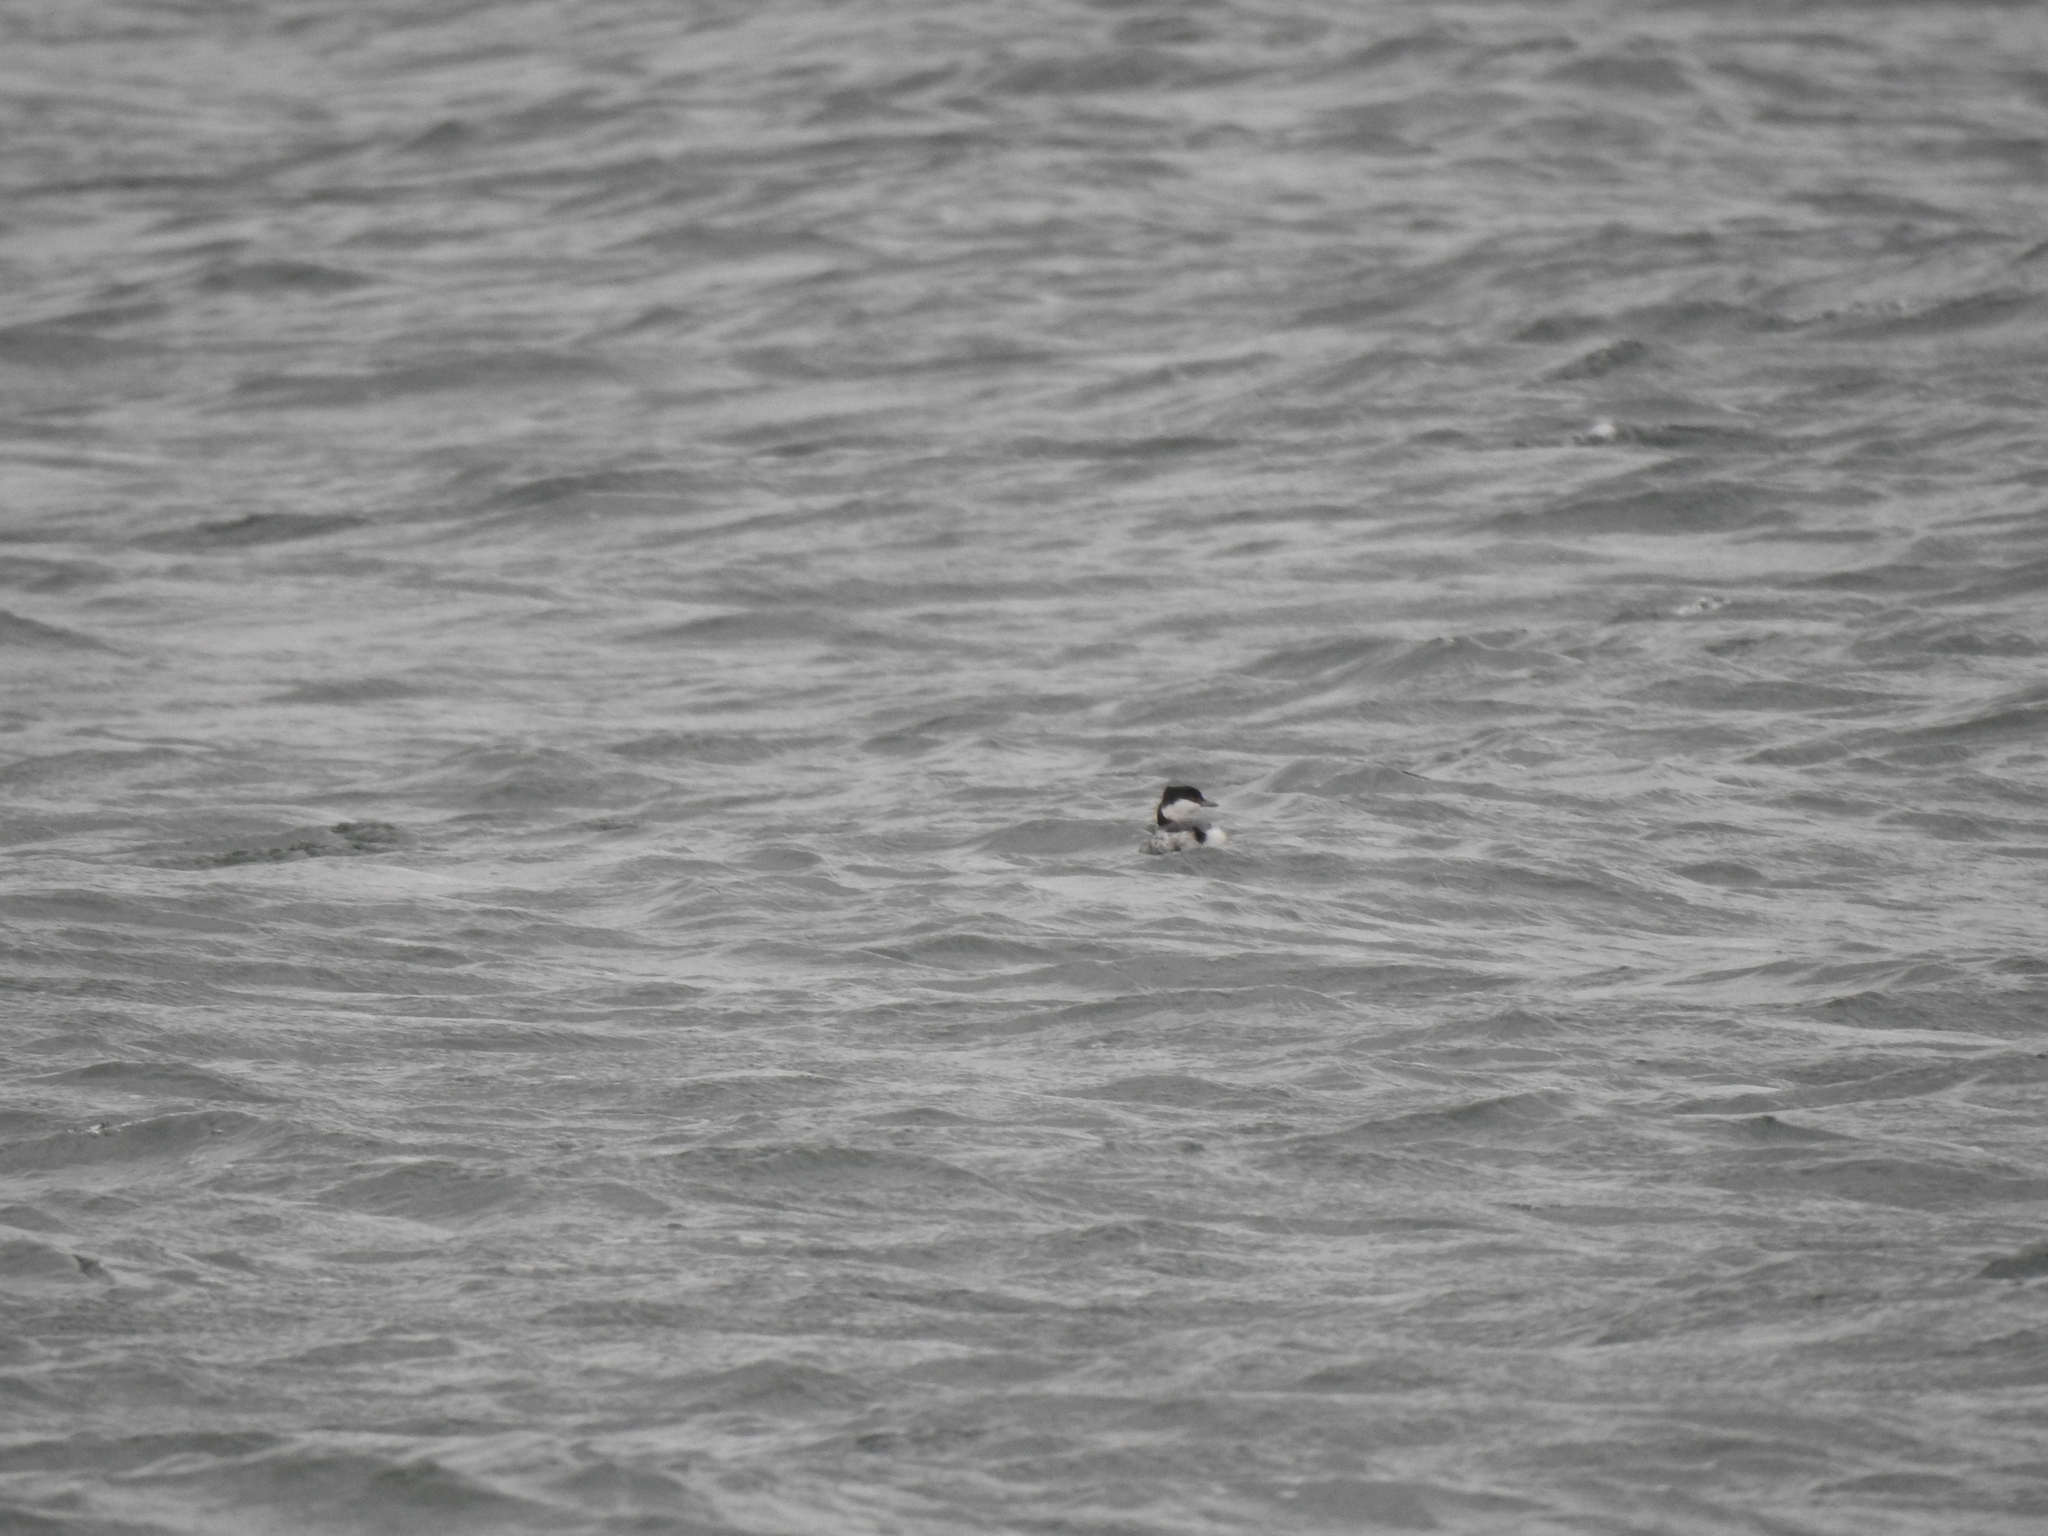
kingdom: Animalia
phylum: Chordata
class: Aves
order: Podicipediformes
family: Podicipedidae
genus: Podiceps
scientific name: Podiceps auritus
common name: Horned grebe
